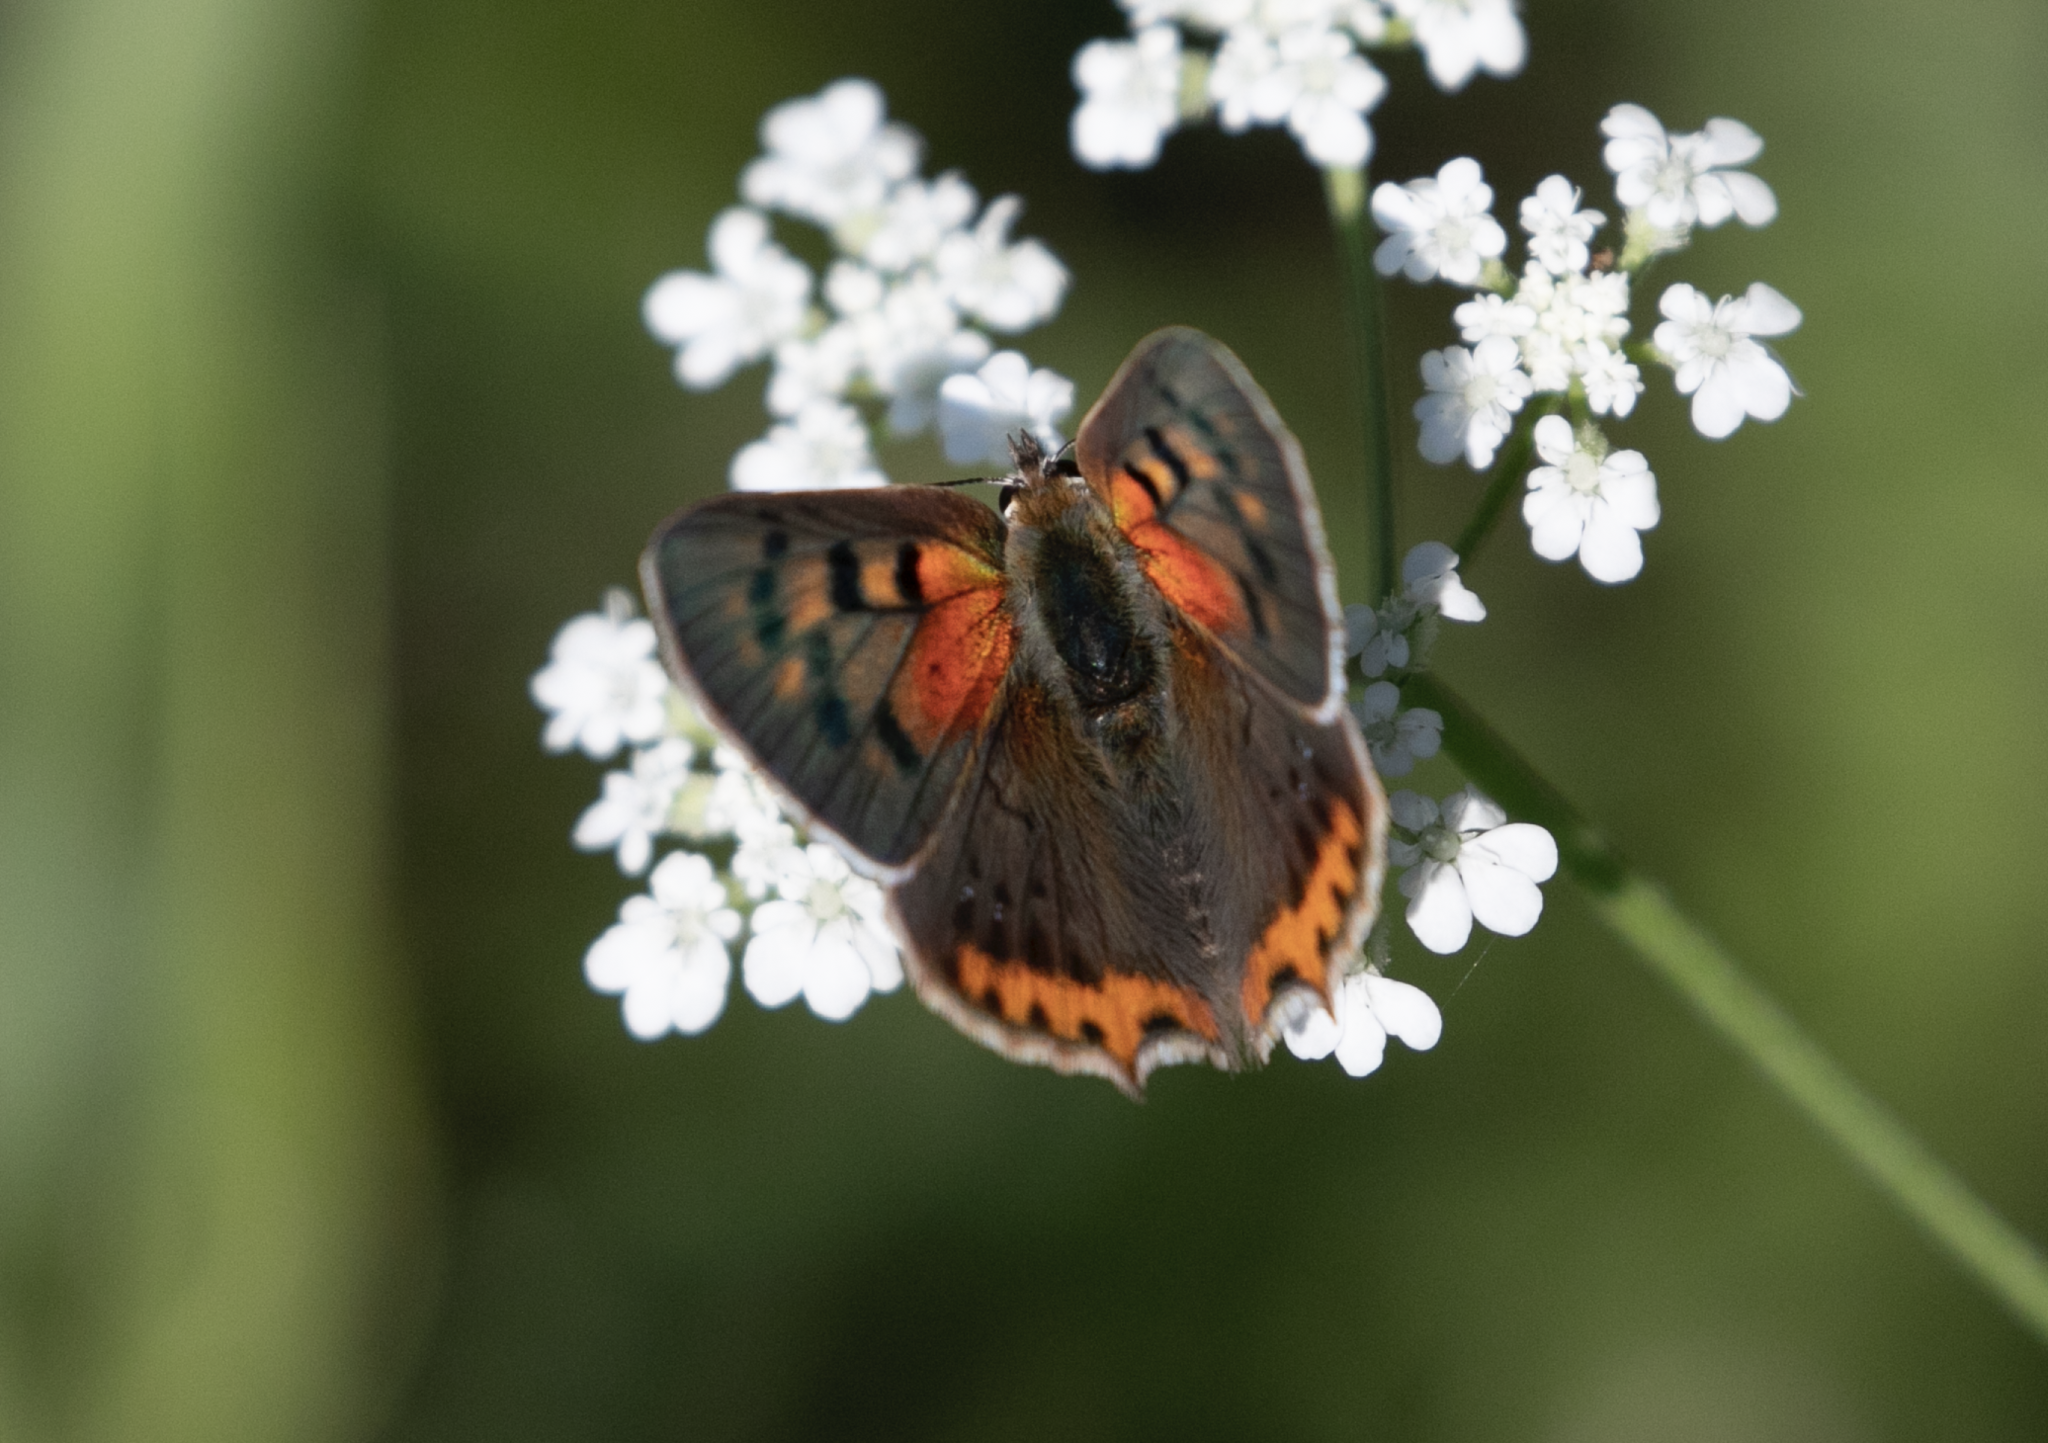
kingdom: Animalia
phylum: Arthropoda
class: Insecta
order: Lepidoptera
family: Lycaenidae
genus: Lycaena
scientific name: Lycaena phlaeas
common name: Small copper
